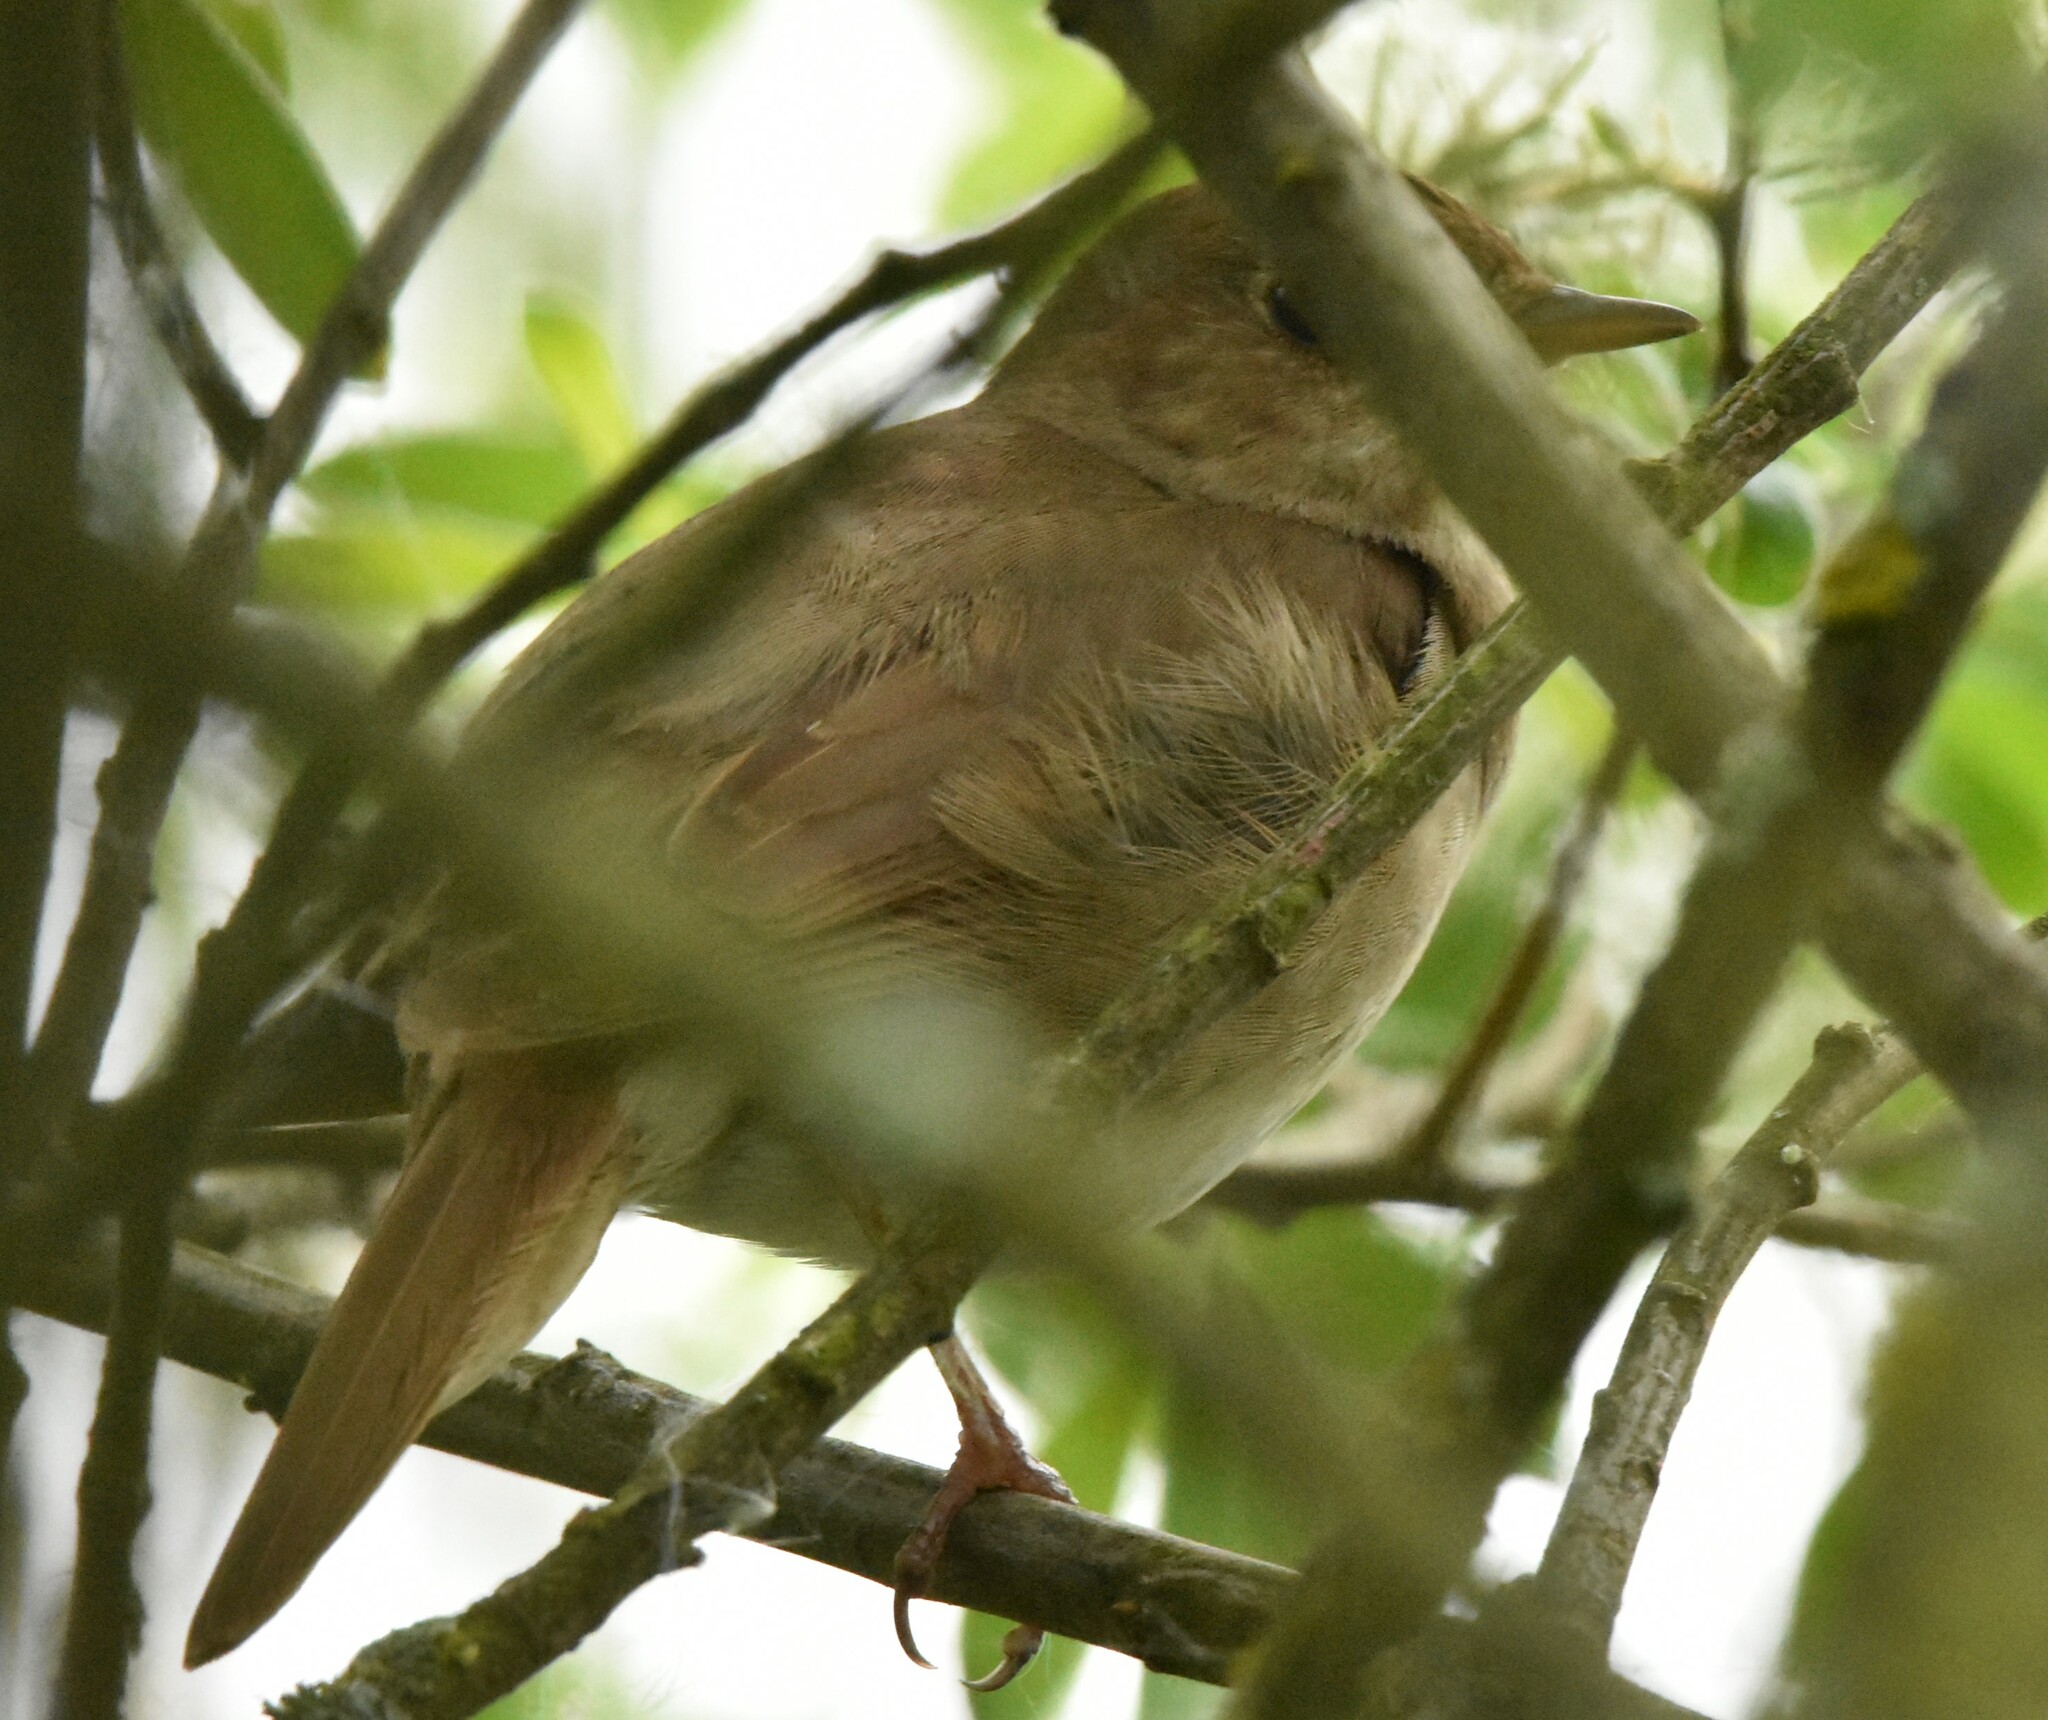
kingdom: Animalia
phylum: Chordata
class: Aves
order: Passeriformes
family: Muscicapidae
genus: Luscinia
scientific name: Luscinia luscinia
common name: Thrush nightingale
